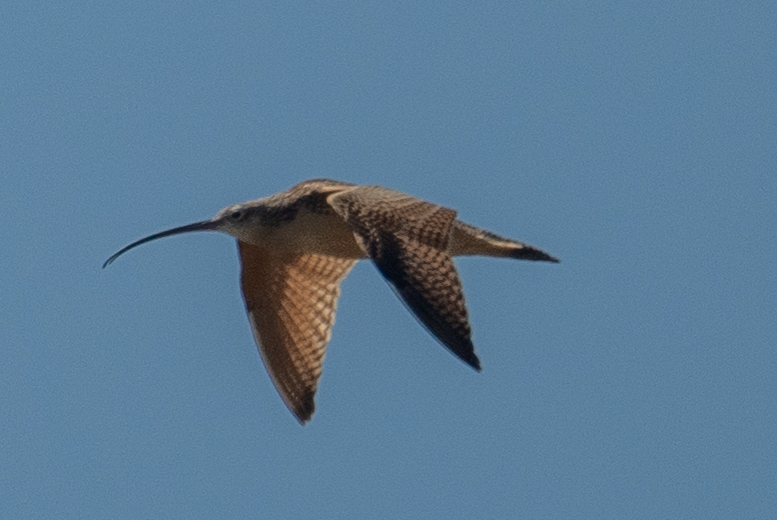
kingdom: Animalia
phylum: Chordata
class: Aves
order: Charadriiformes
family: Scolopacidae
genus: Numenius
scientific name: Numenius americanus
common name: Long-billed curlew
